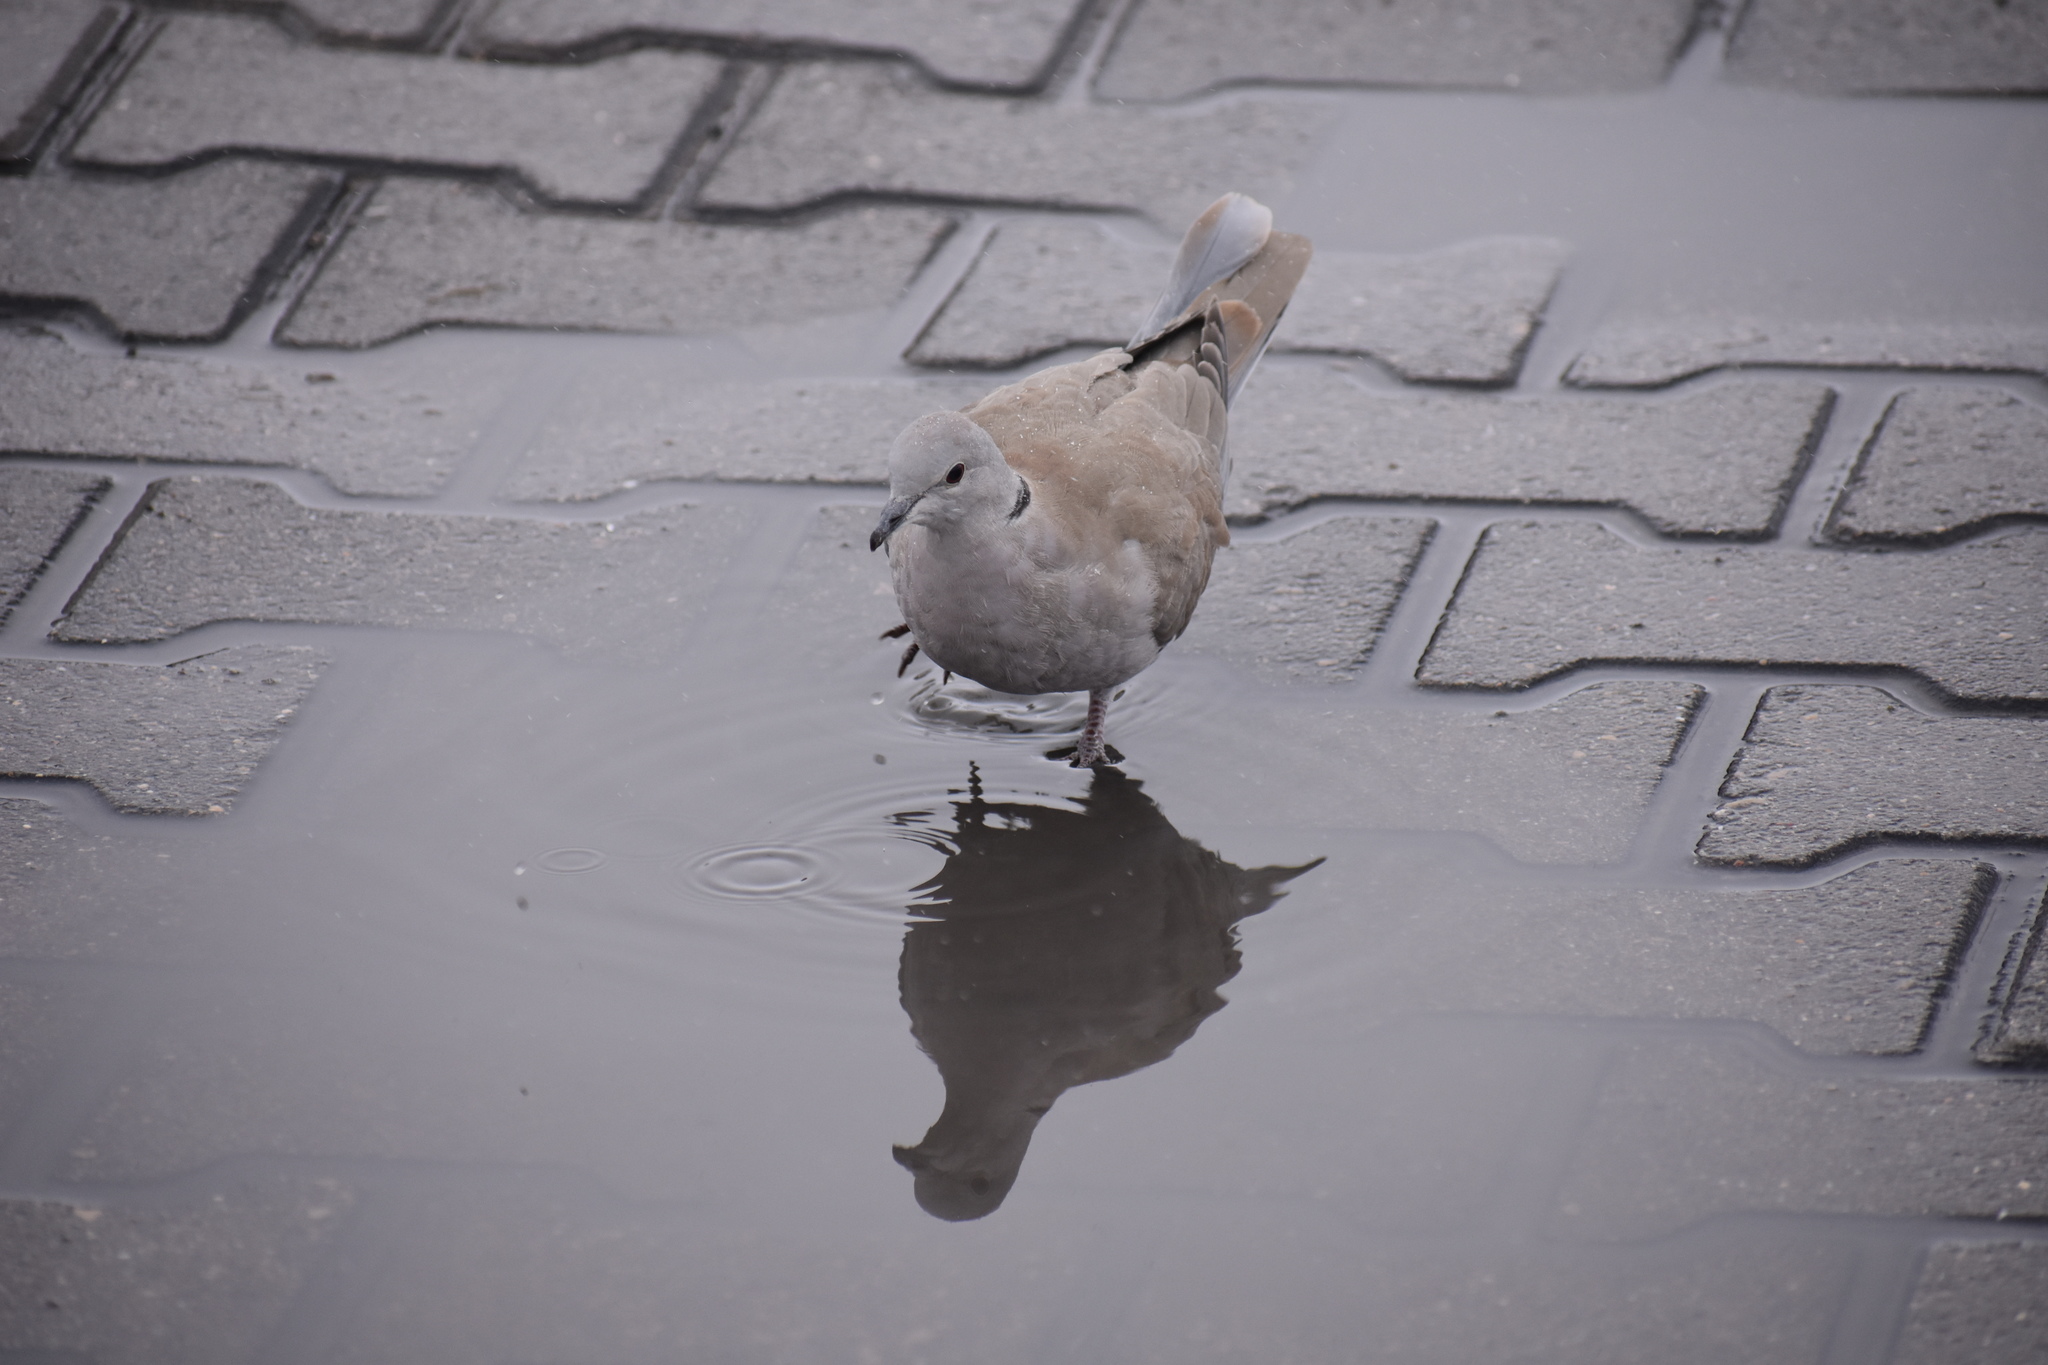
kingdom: Animalia
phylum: Chordata
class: Aves
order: Columbiformes
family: Columbidae
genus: Streptopelia
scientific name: Streptopelia decaocto
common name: Eurasian collared dove
